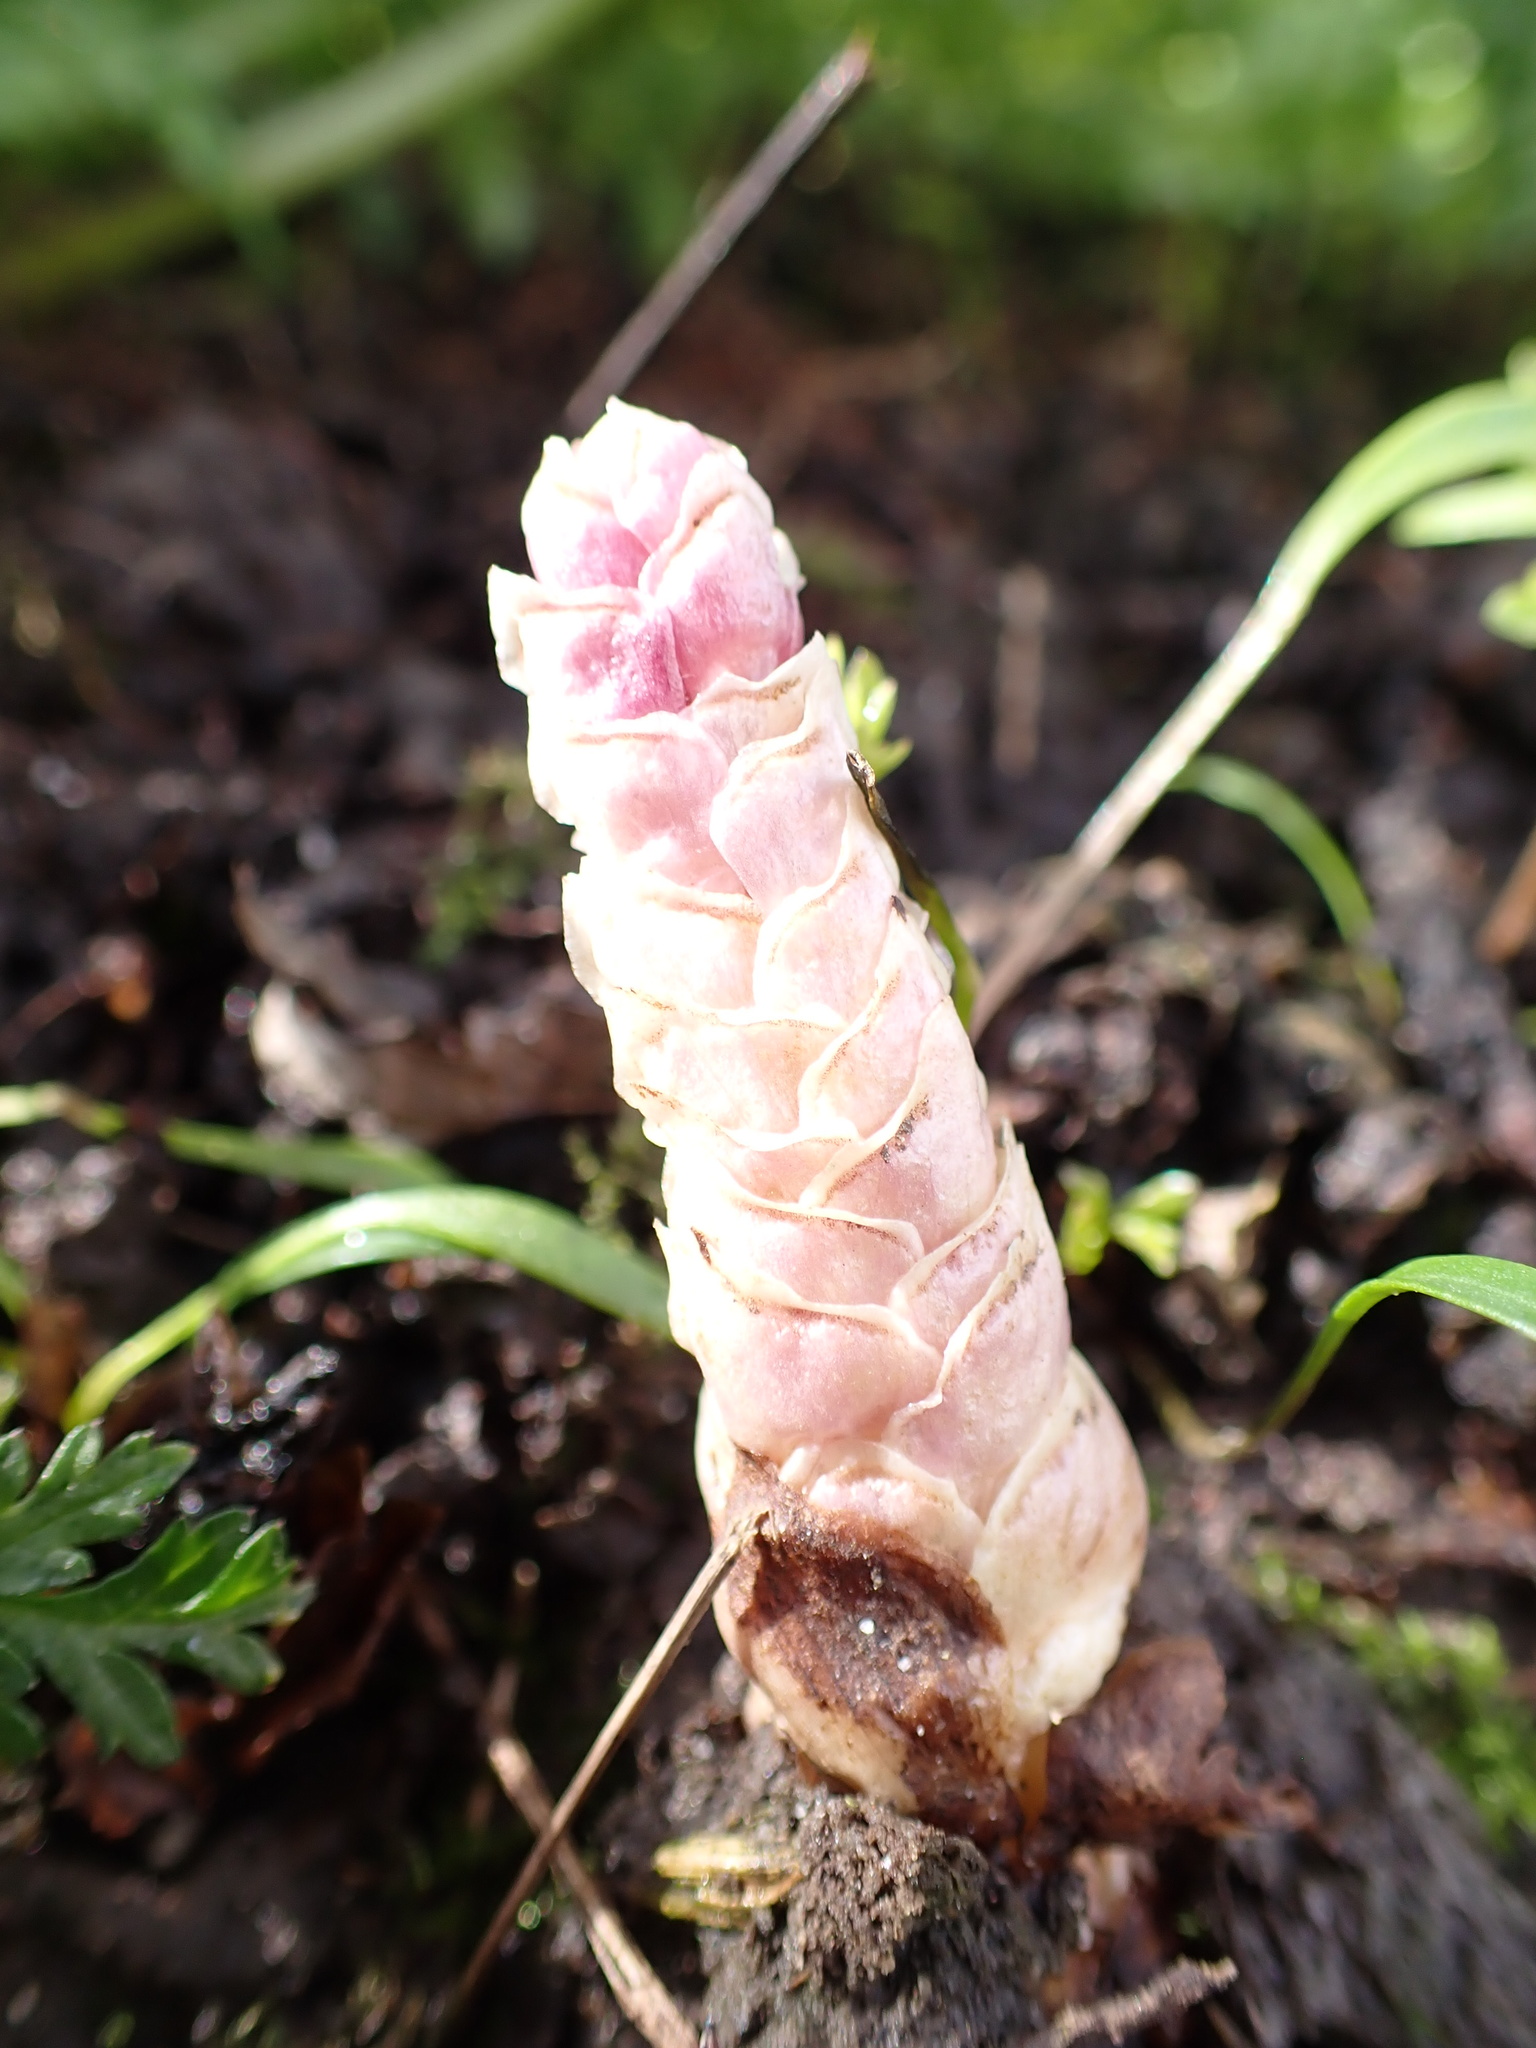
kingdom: Plantae
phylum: Tracheophyta
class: Magnoliopsida
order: Lamiales
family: Orobanchaceae
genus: Lathraea
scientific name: Lathraea squamaria
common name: Toothwort
